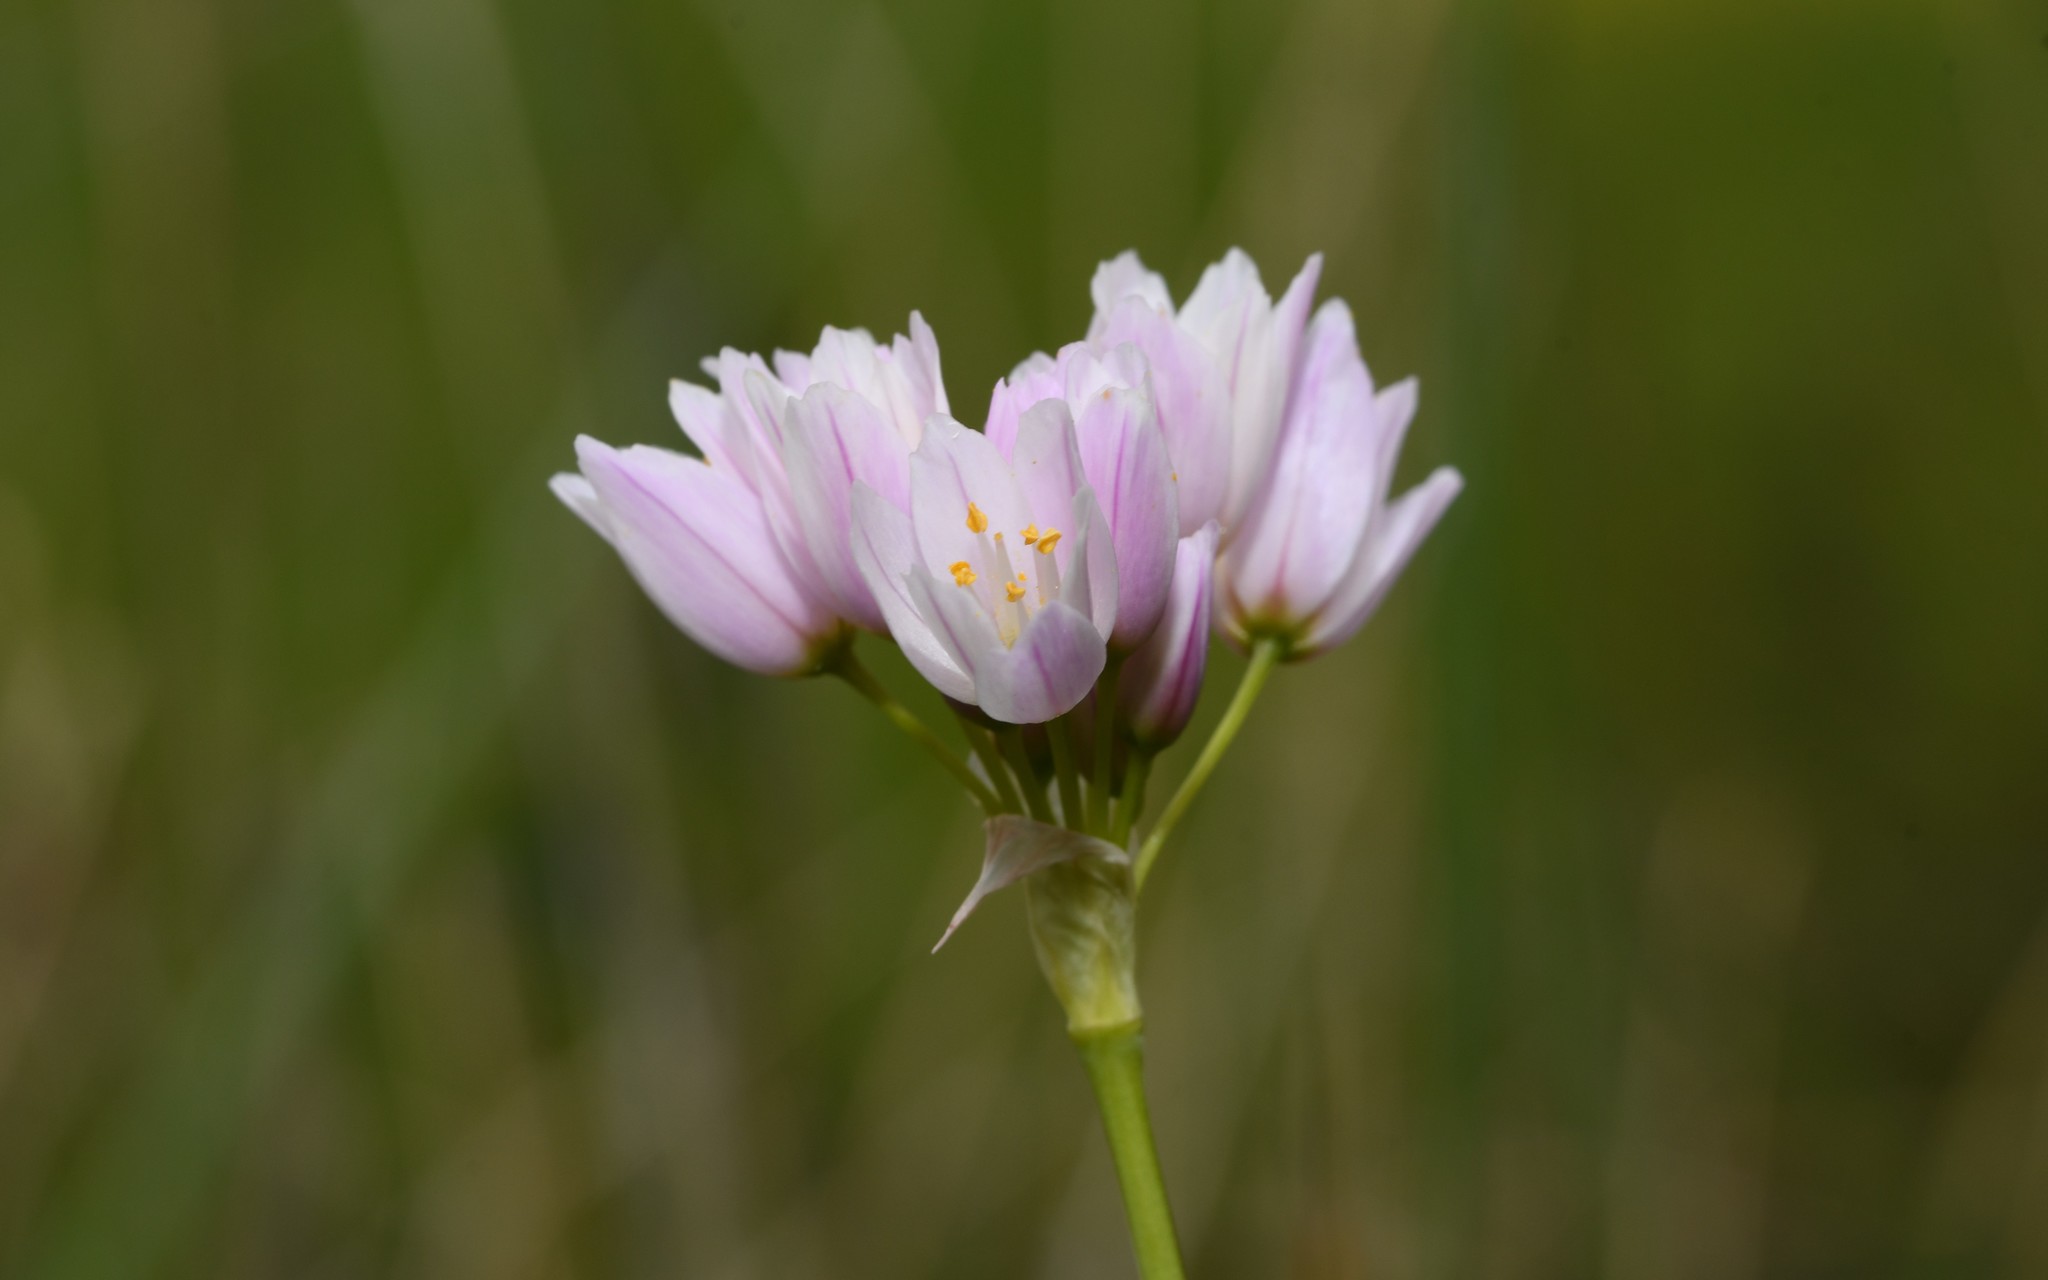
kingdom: Plantae
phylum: Tracheophyta
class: Liliopsida
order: Asparagales
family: Amaryllidaceae
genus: Allium
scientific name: Allium roseum
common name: Rosy garlic
